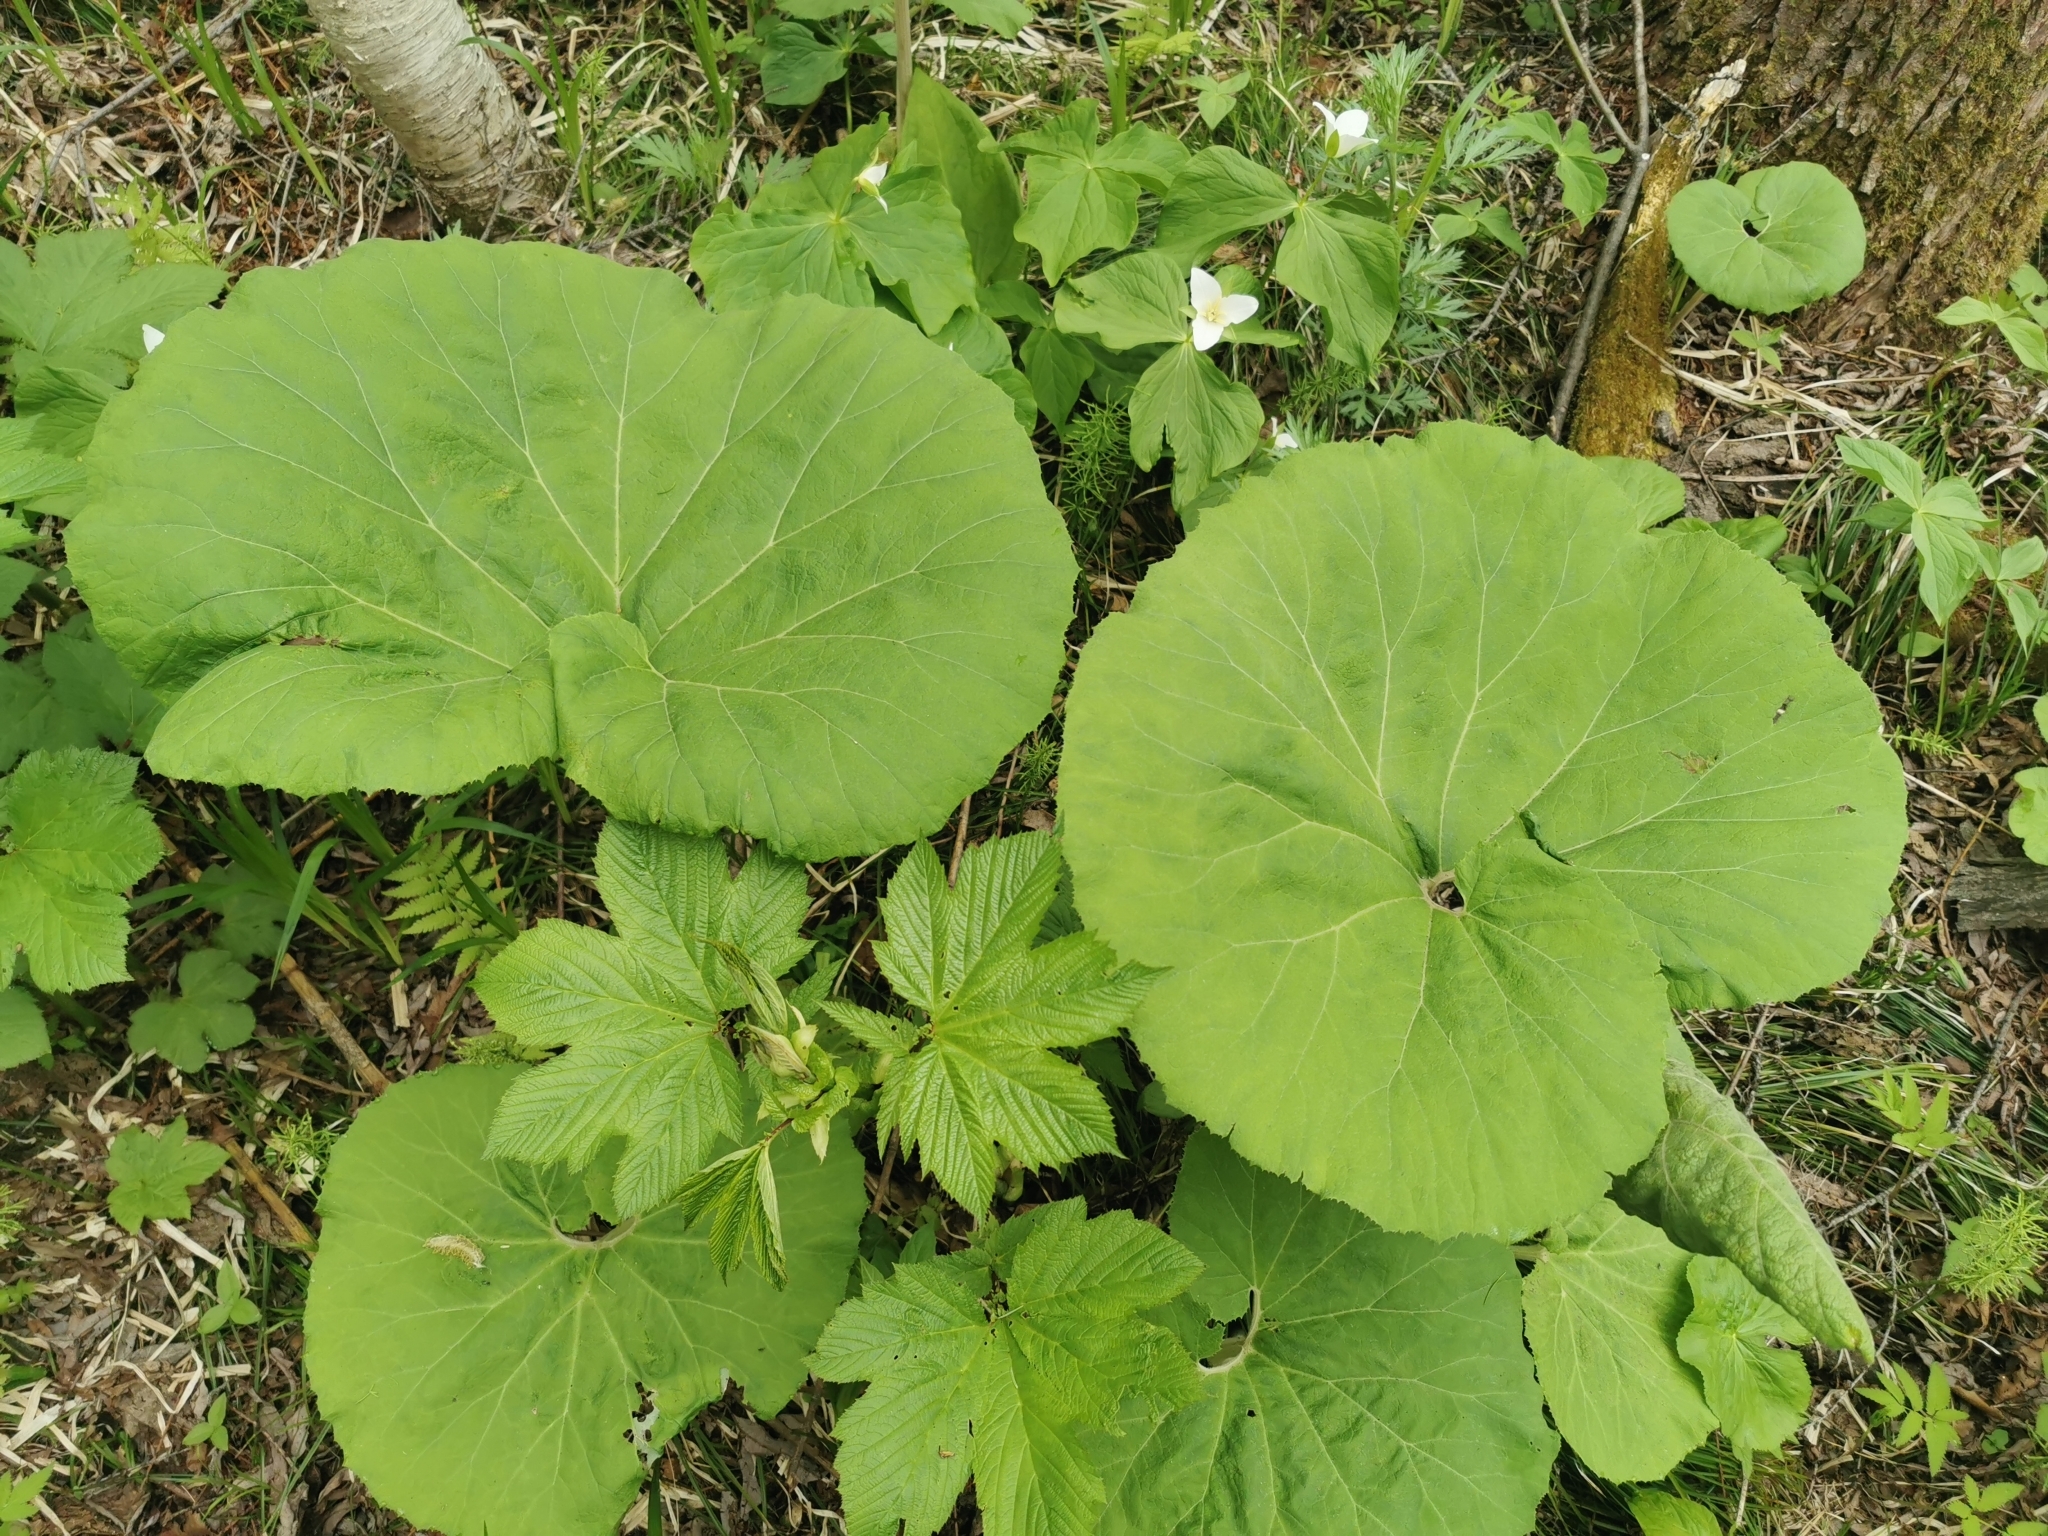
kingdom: Plantae
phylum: Tracheophyta
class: Magnoliopsida
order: Asterales
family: Asteraceae
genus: Petasites
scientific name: Petasites japonicus
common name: Giant butterbur
